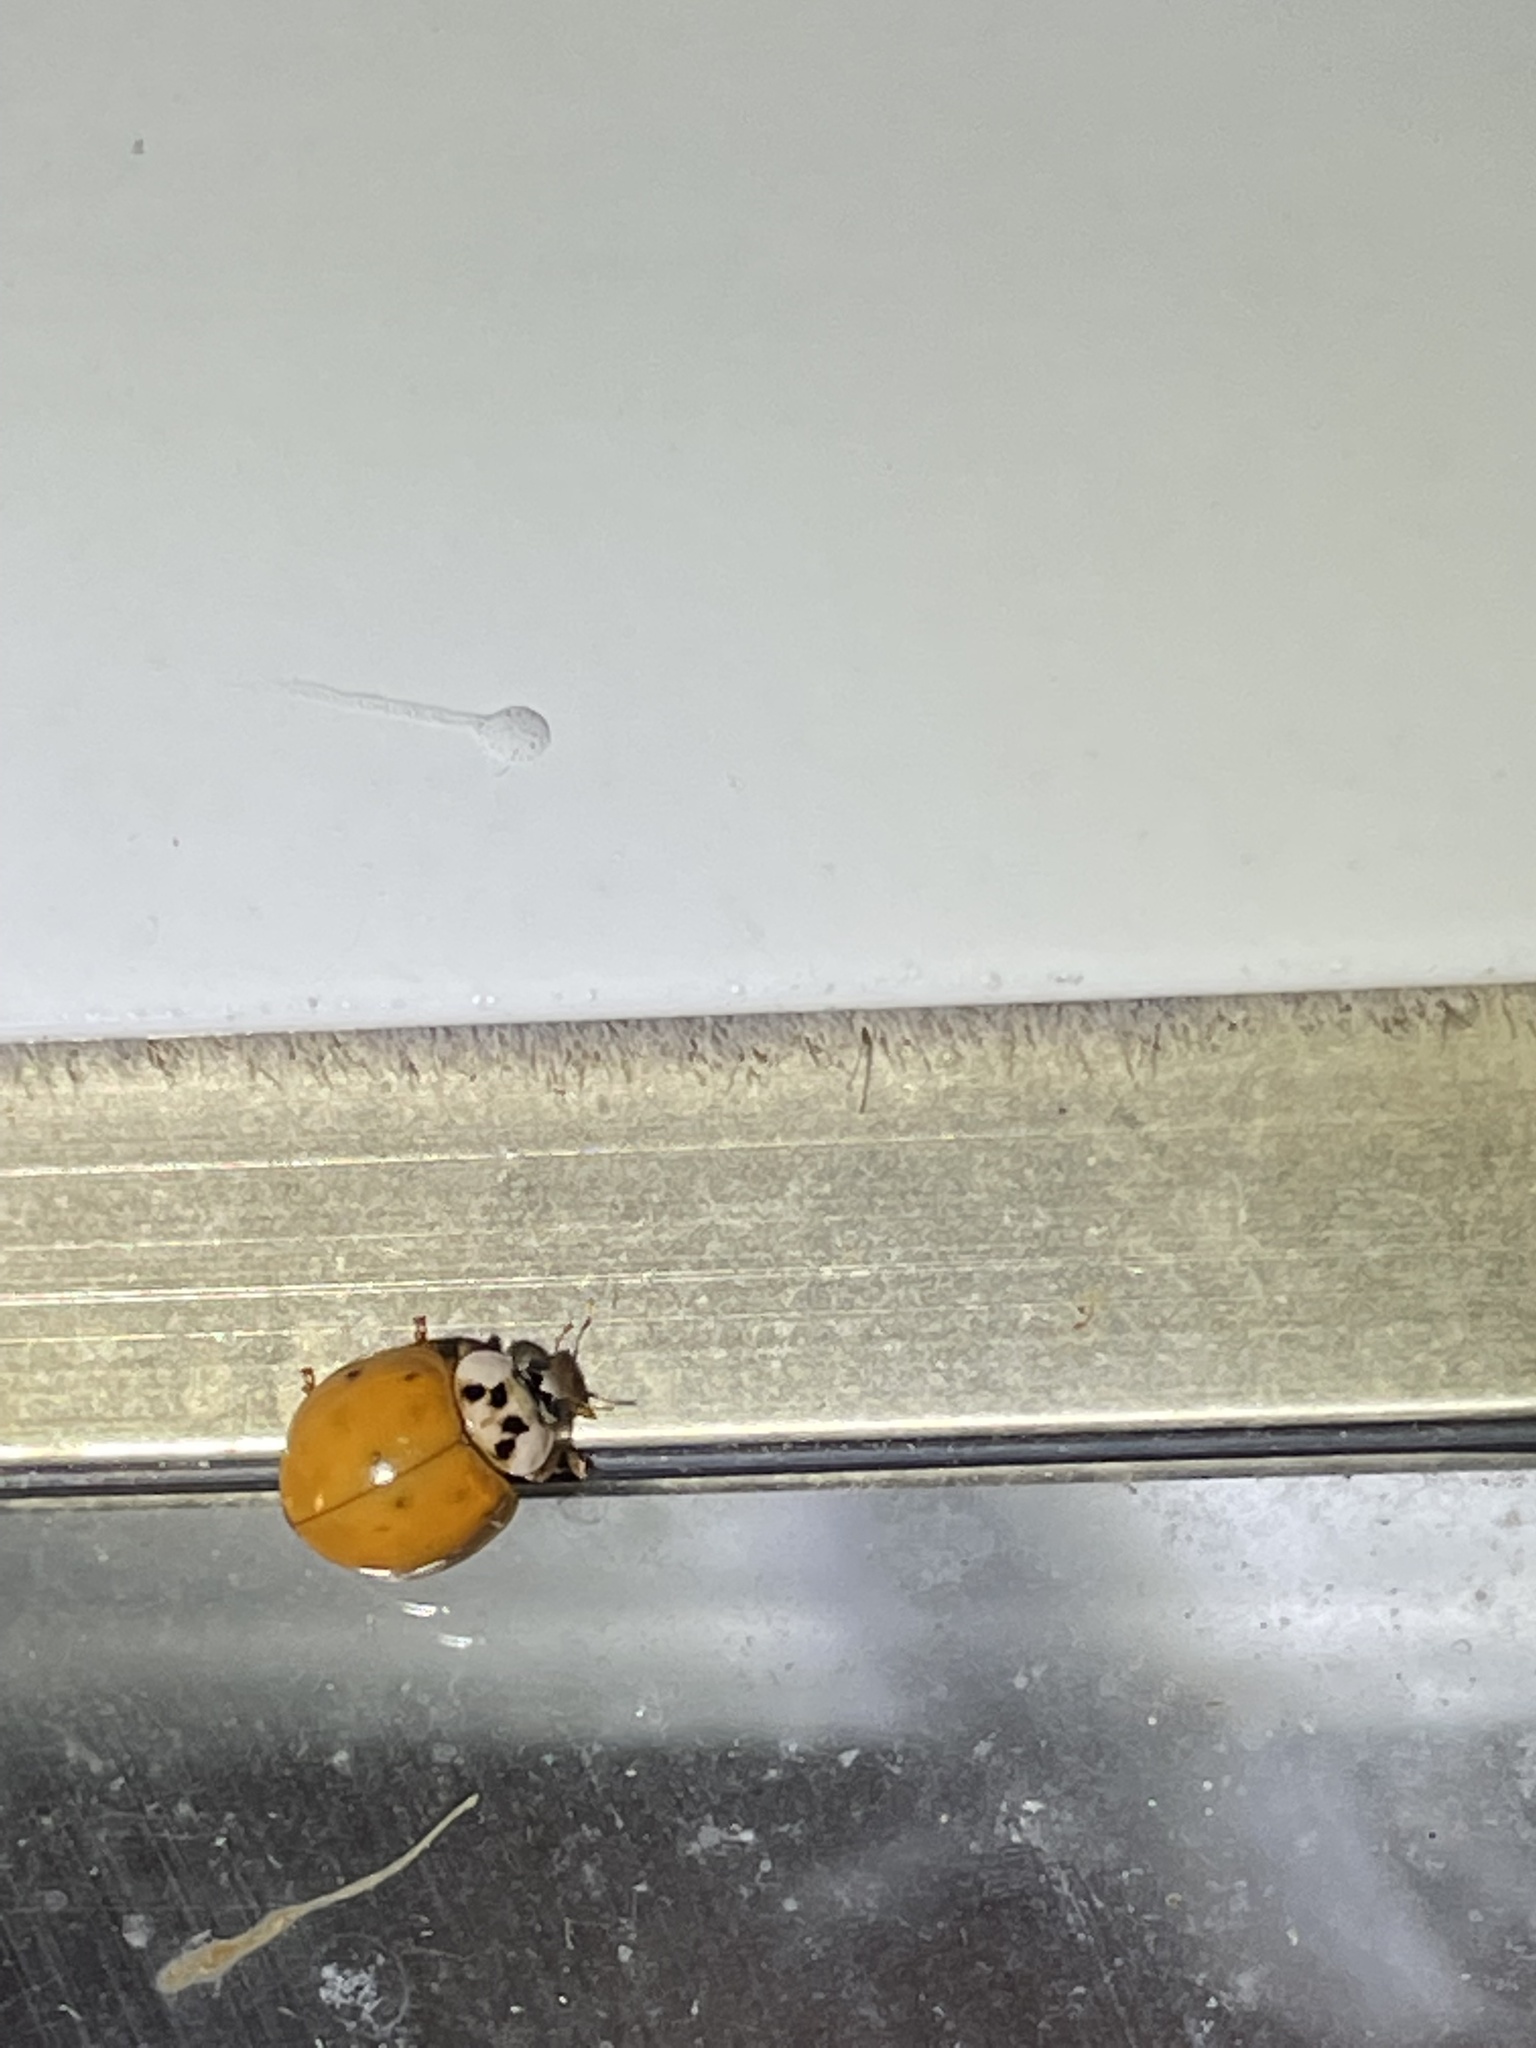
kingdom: Animalia
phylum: Arthropoda
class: Insecta
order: Coleoptera
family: Coccinellidae
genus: Harmonia
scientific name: Harmonia axyridis
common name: Harlequin ladybird
